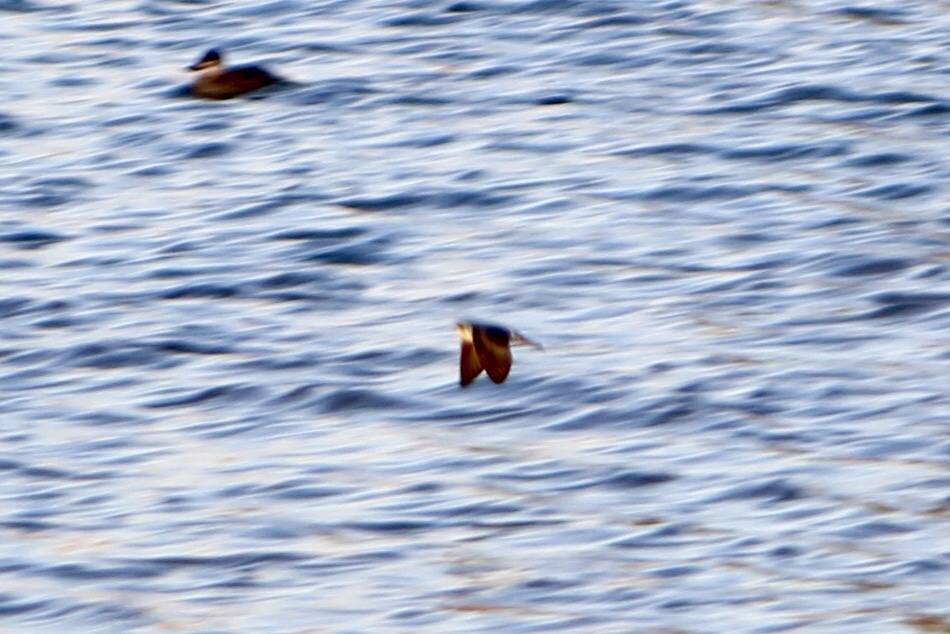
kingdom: Animalia
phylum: Chordata
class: Aves
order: Passeriformes
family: Hirundinidae
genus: Tachycineta
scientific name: Tachycineta bicolor
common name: Tree swallow
